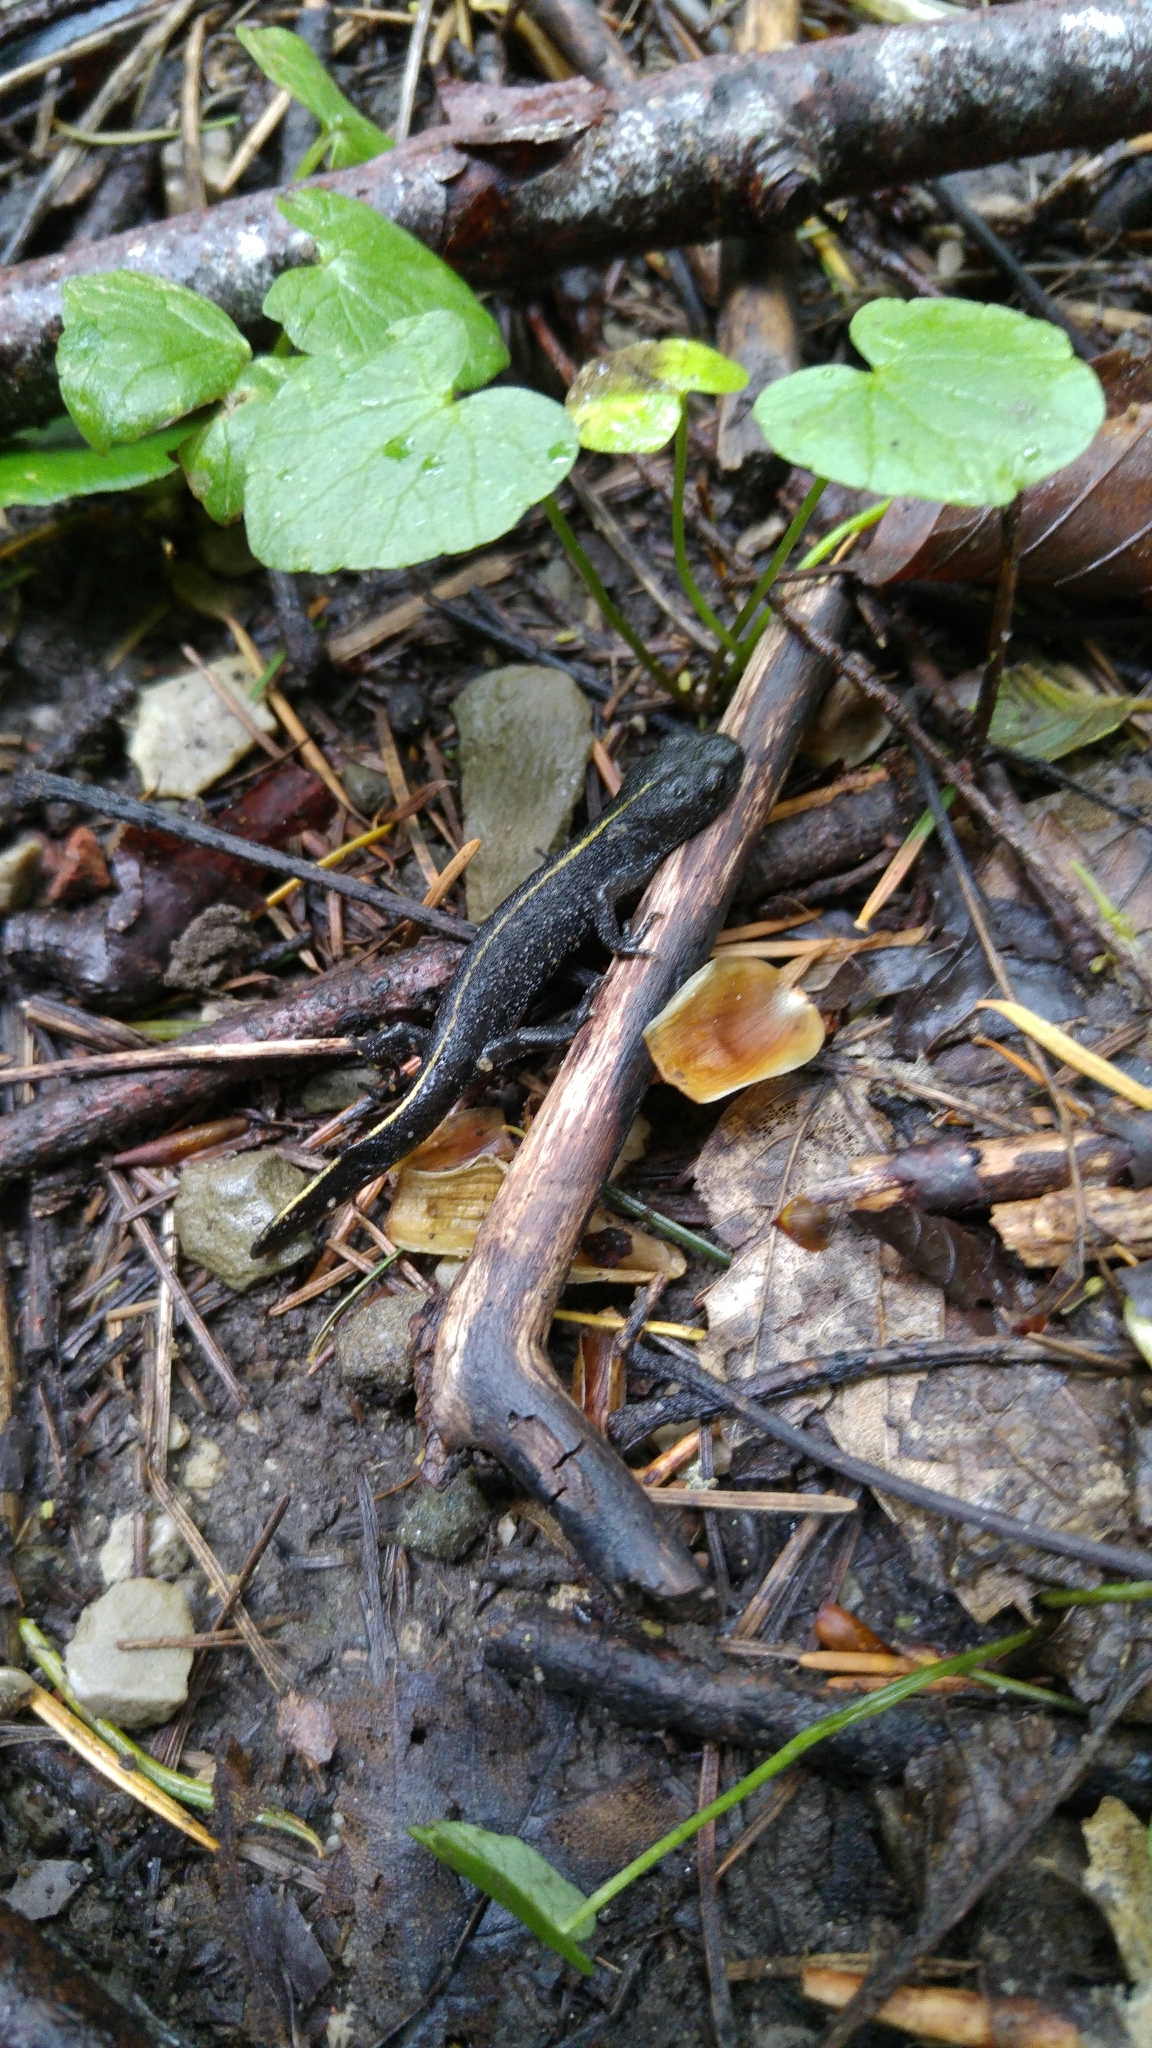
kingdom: Animalia
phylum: Chordata
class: Amphibia
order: Caudata
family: Salamandridae
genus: Triturus
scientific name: Triturus carnifex
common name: Italian crested newt
